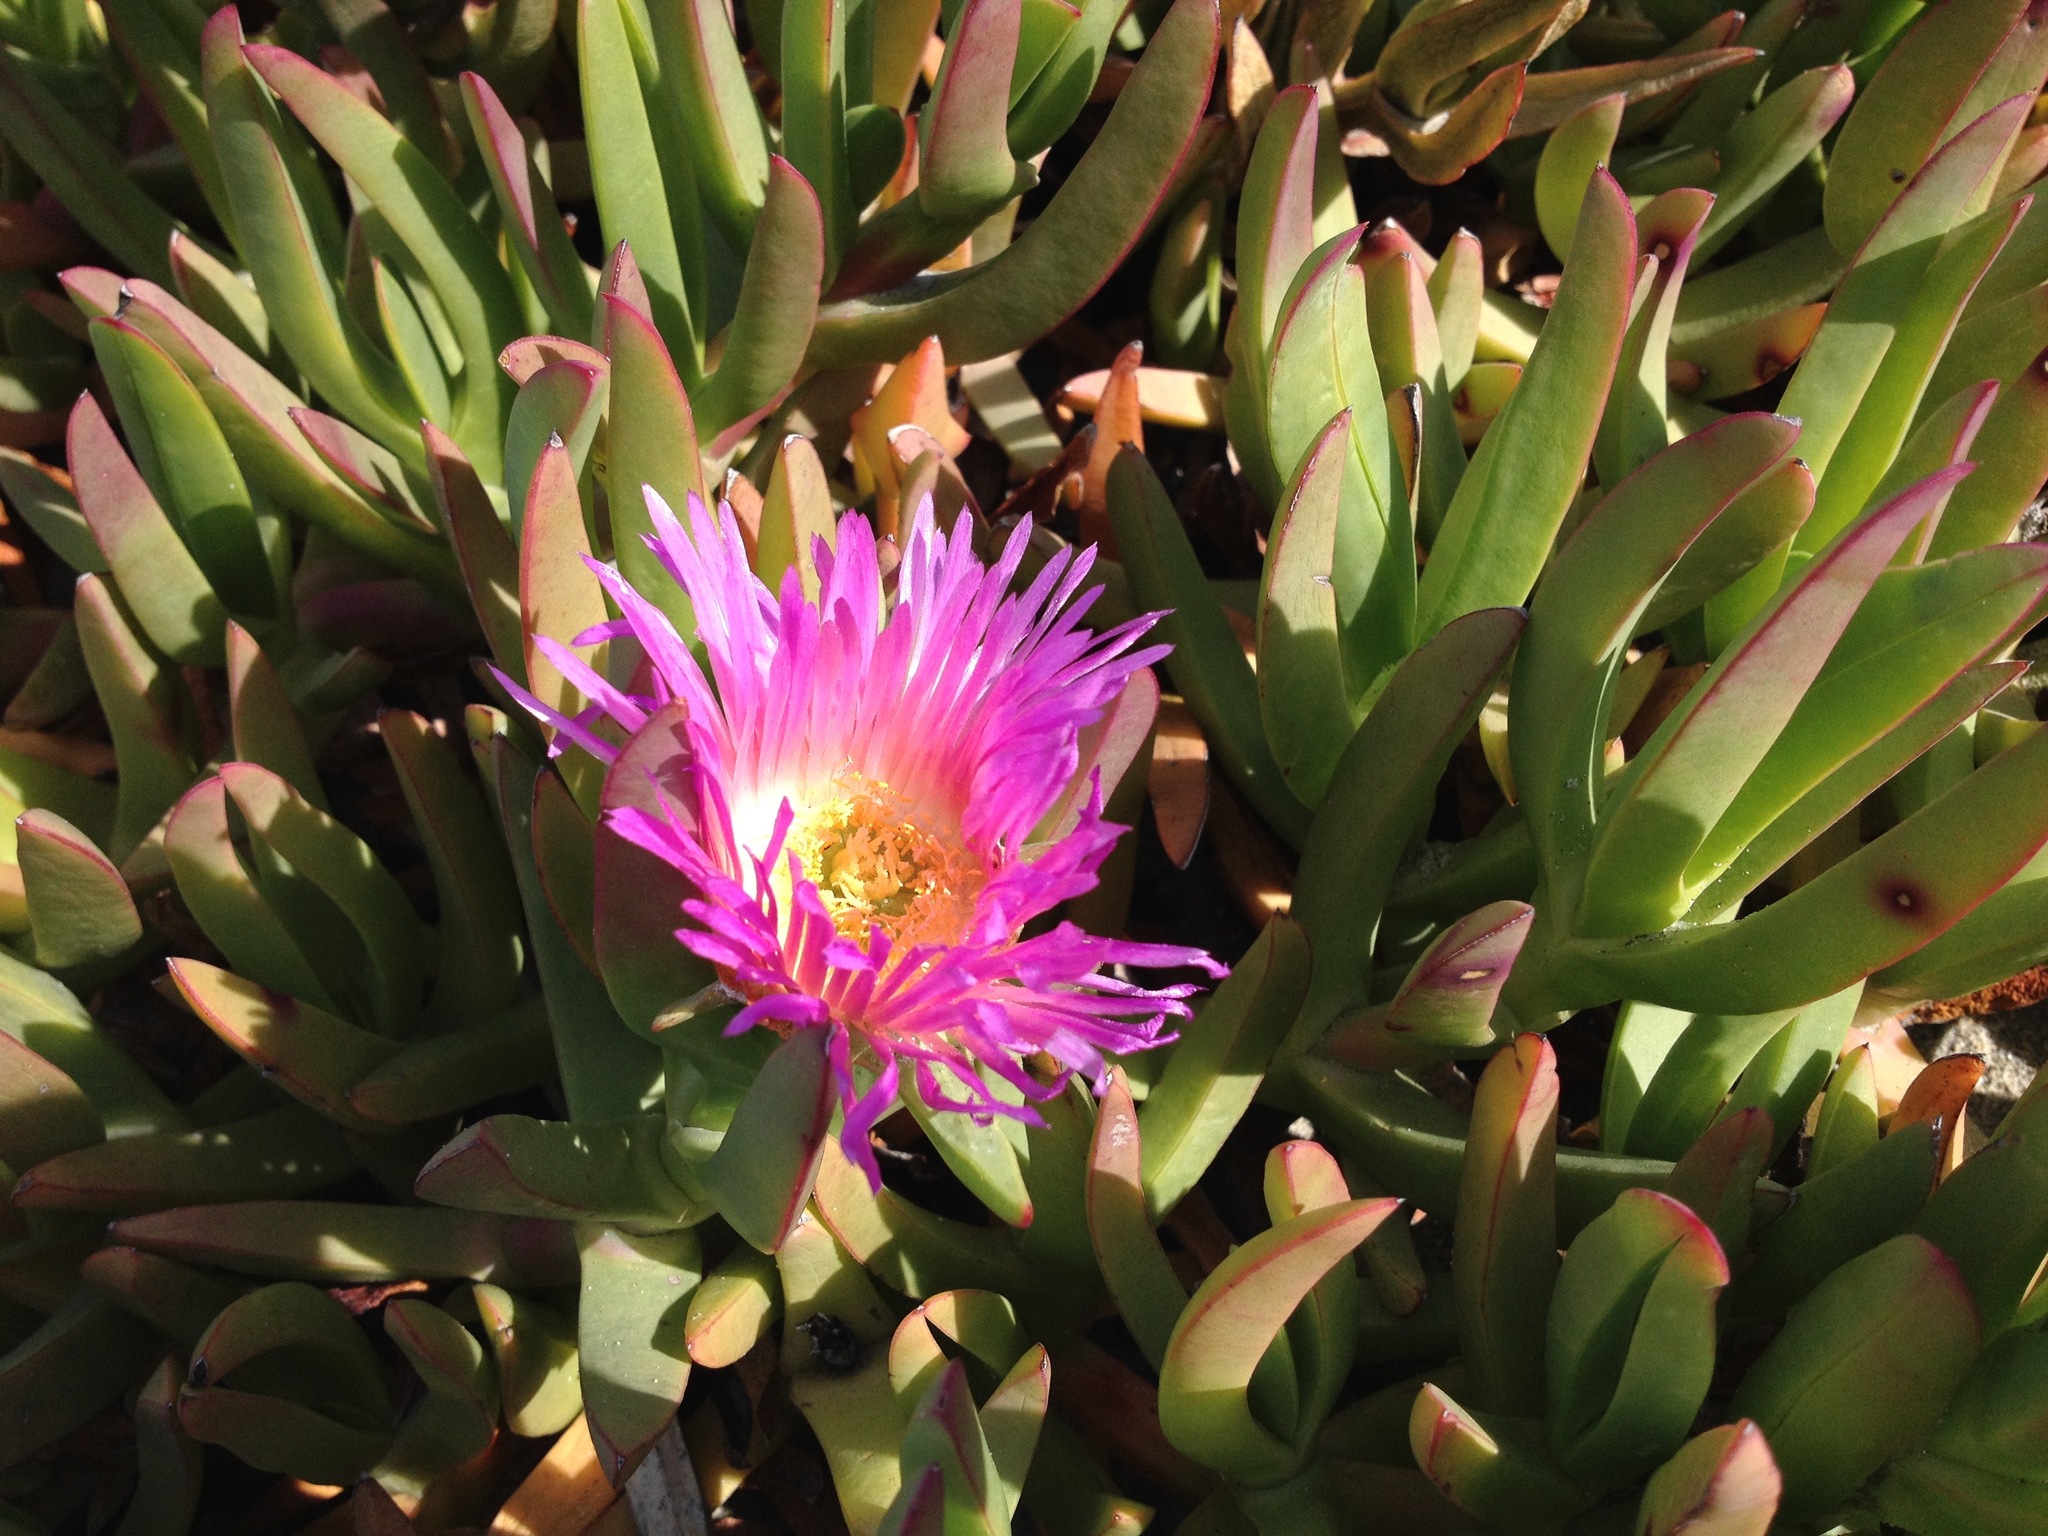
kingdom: Plantae
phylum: Tracheophyta
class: Magnoliopsida
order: Caryophyllales
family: Aizoaceae
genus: Carpobrotus
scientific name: Carpobrotus chilensis
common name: Sea fig
